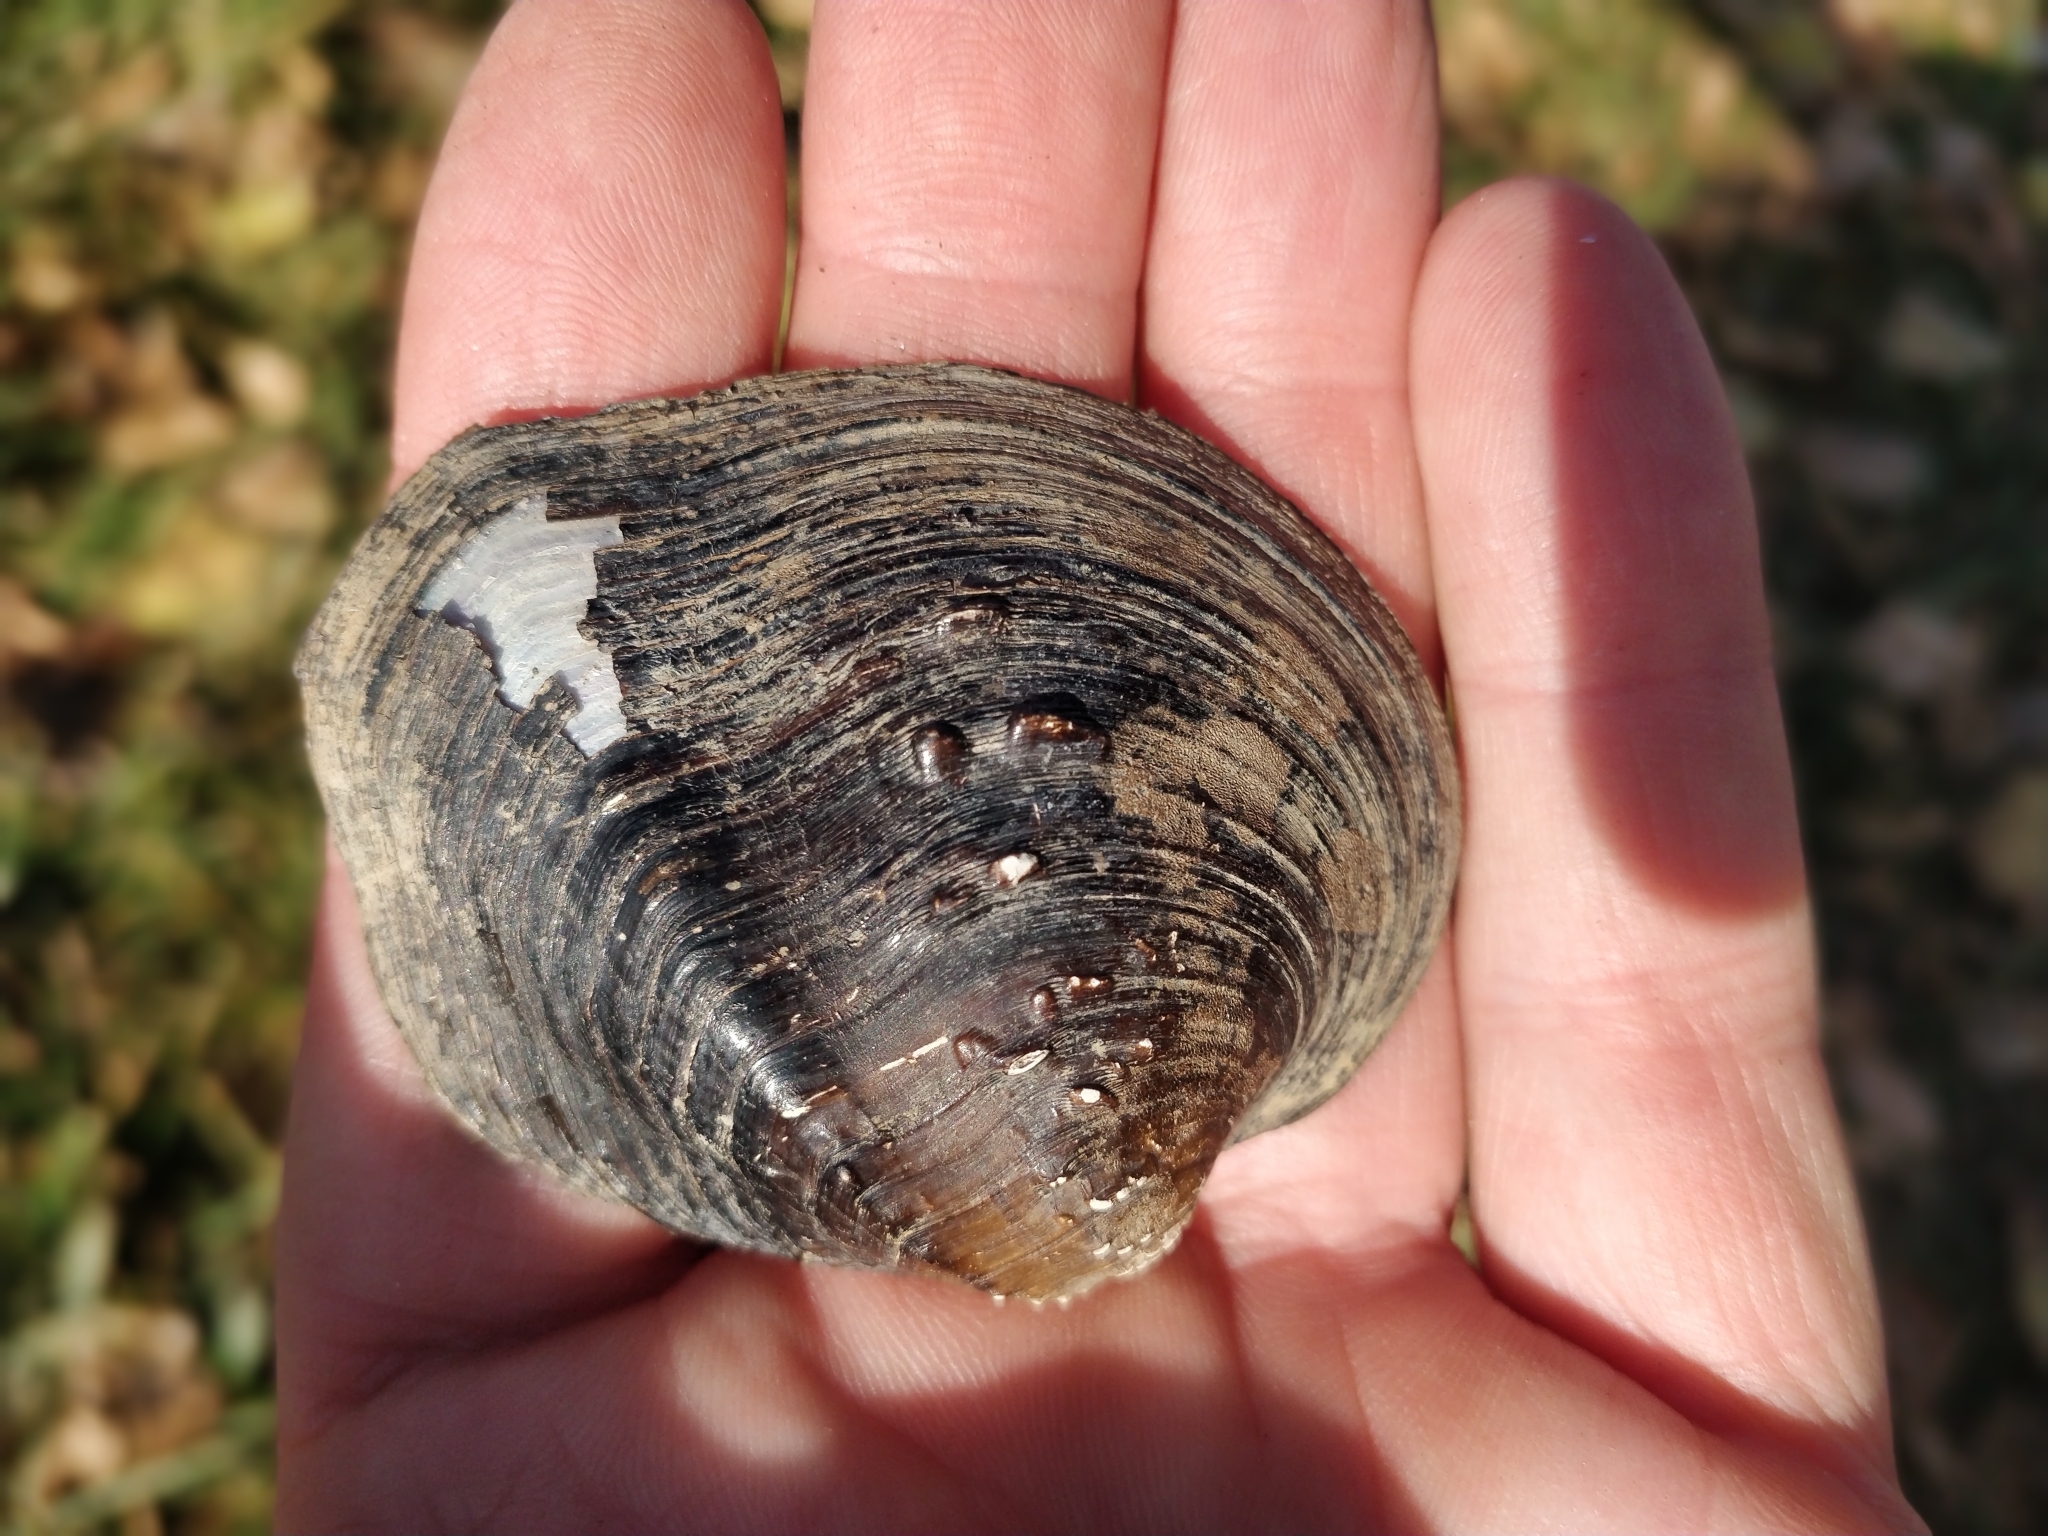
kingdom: Animalia
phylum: Mollusca
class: Bivalvia
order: Unionida
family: Unionidae
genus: Quadrula
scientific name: Quadrula quadrula
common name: Mapleleaf
